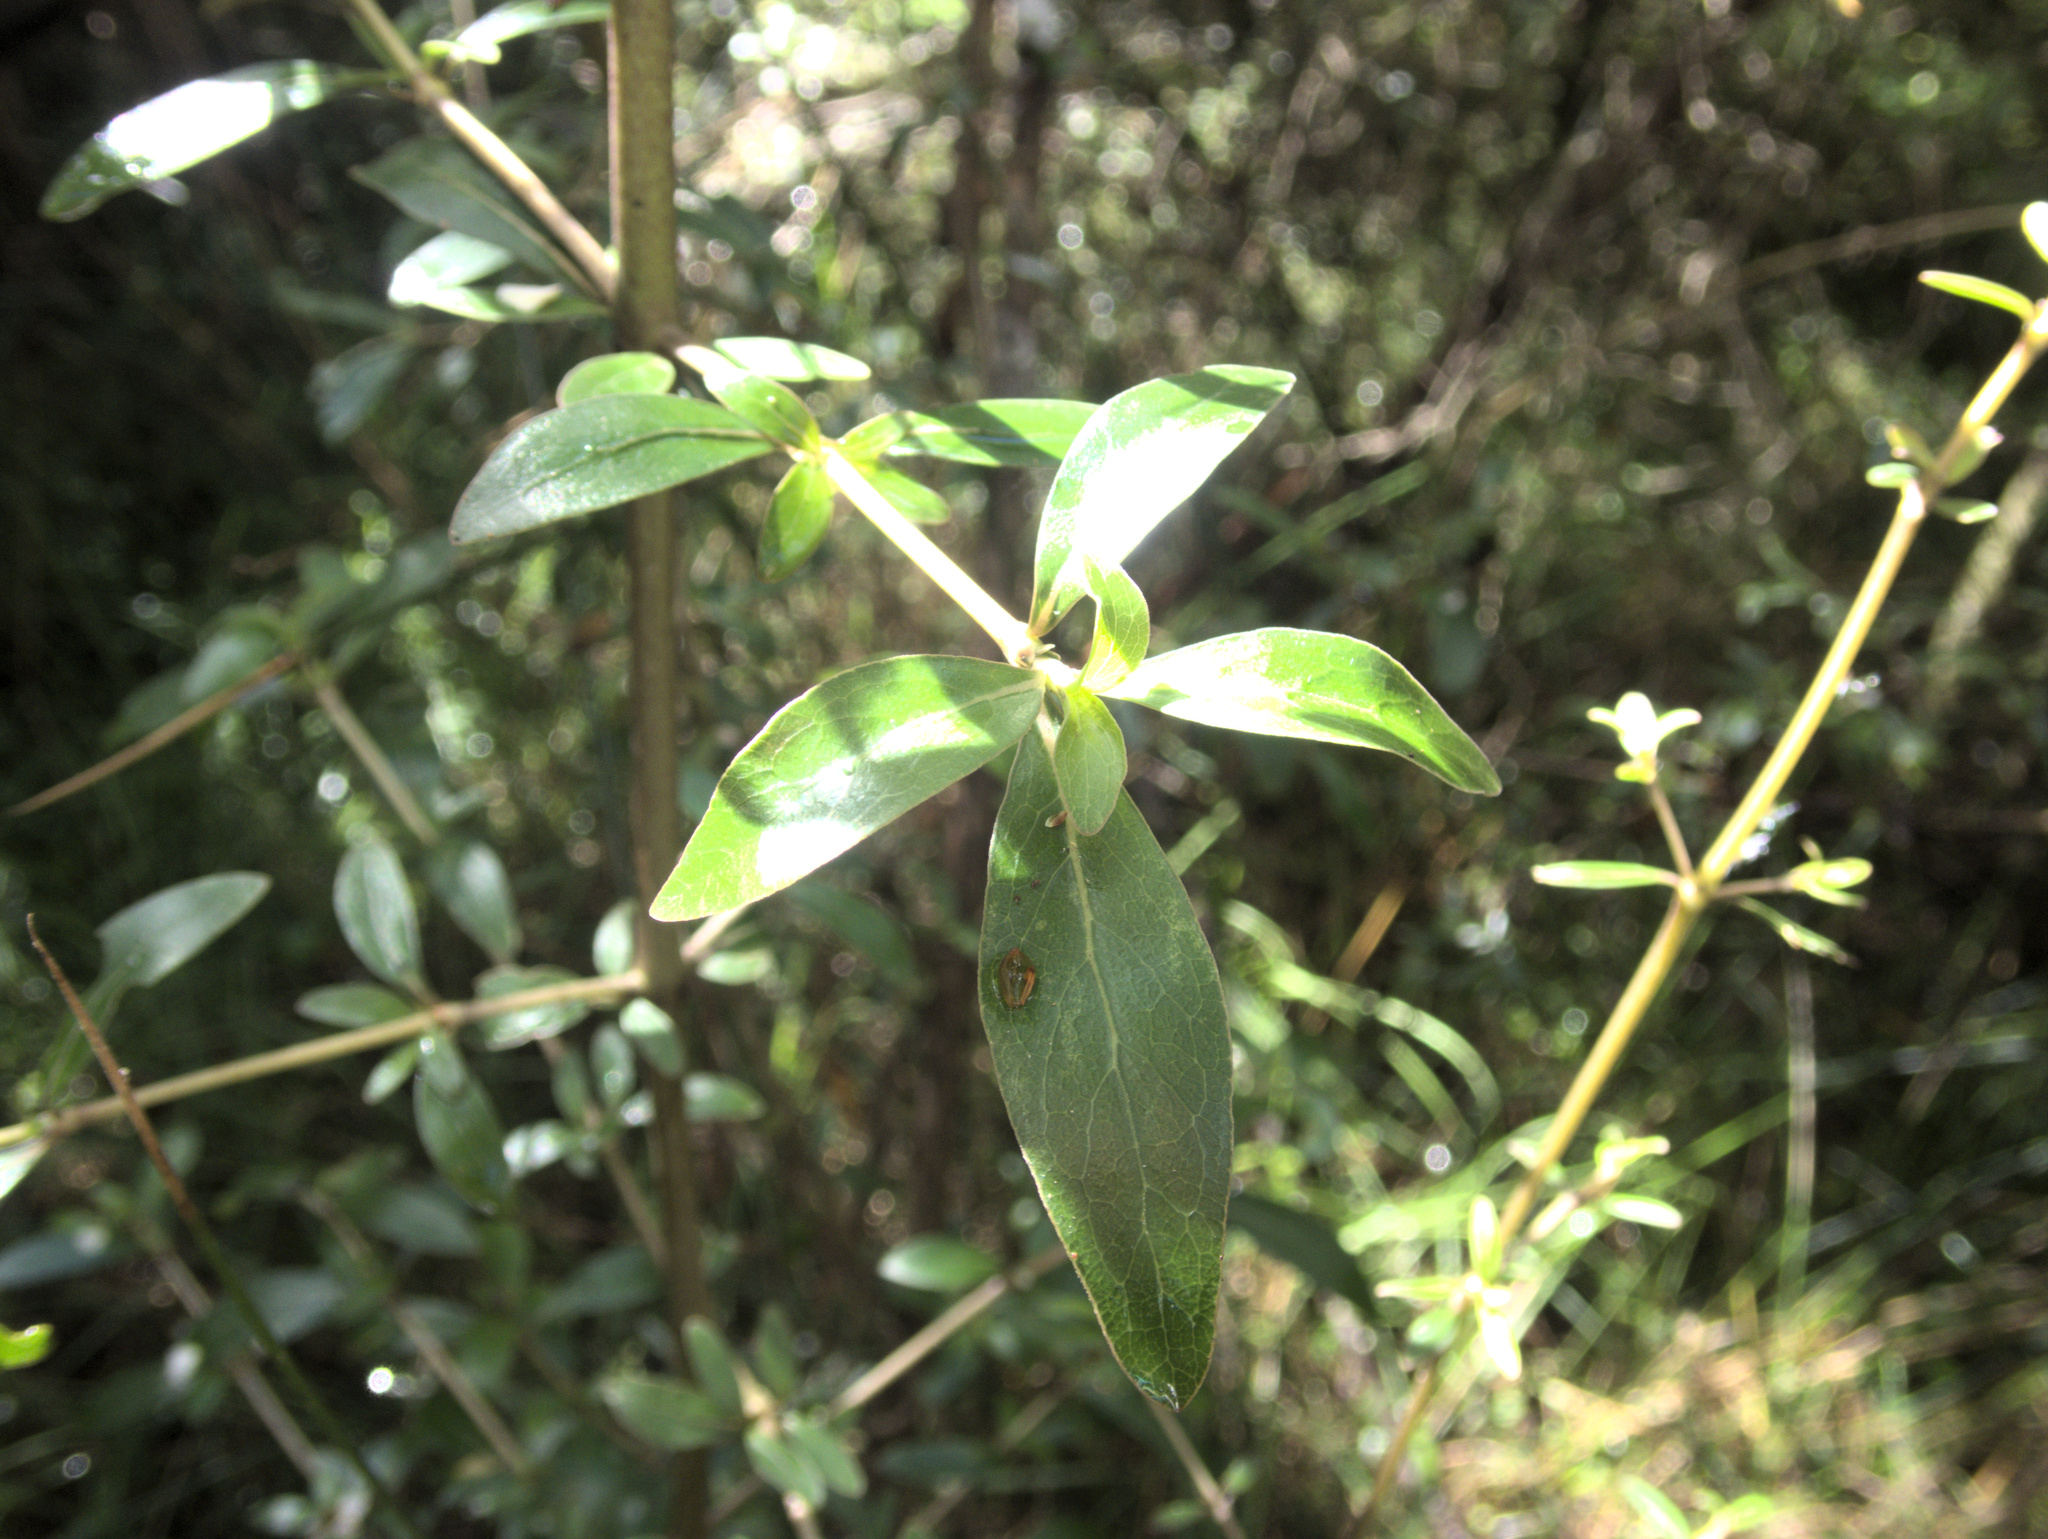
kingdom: Plantae
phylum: Tracheophyta
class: Magnoliopsida
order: Gentianales
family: Rubiaceae
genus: Coprosma
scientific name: Coprosma cunninghamii
